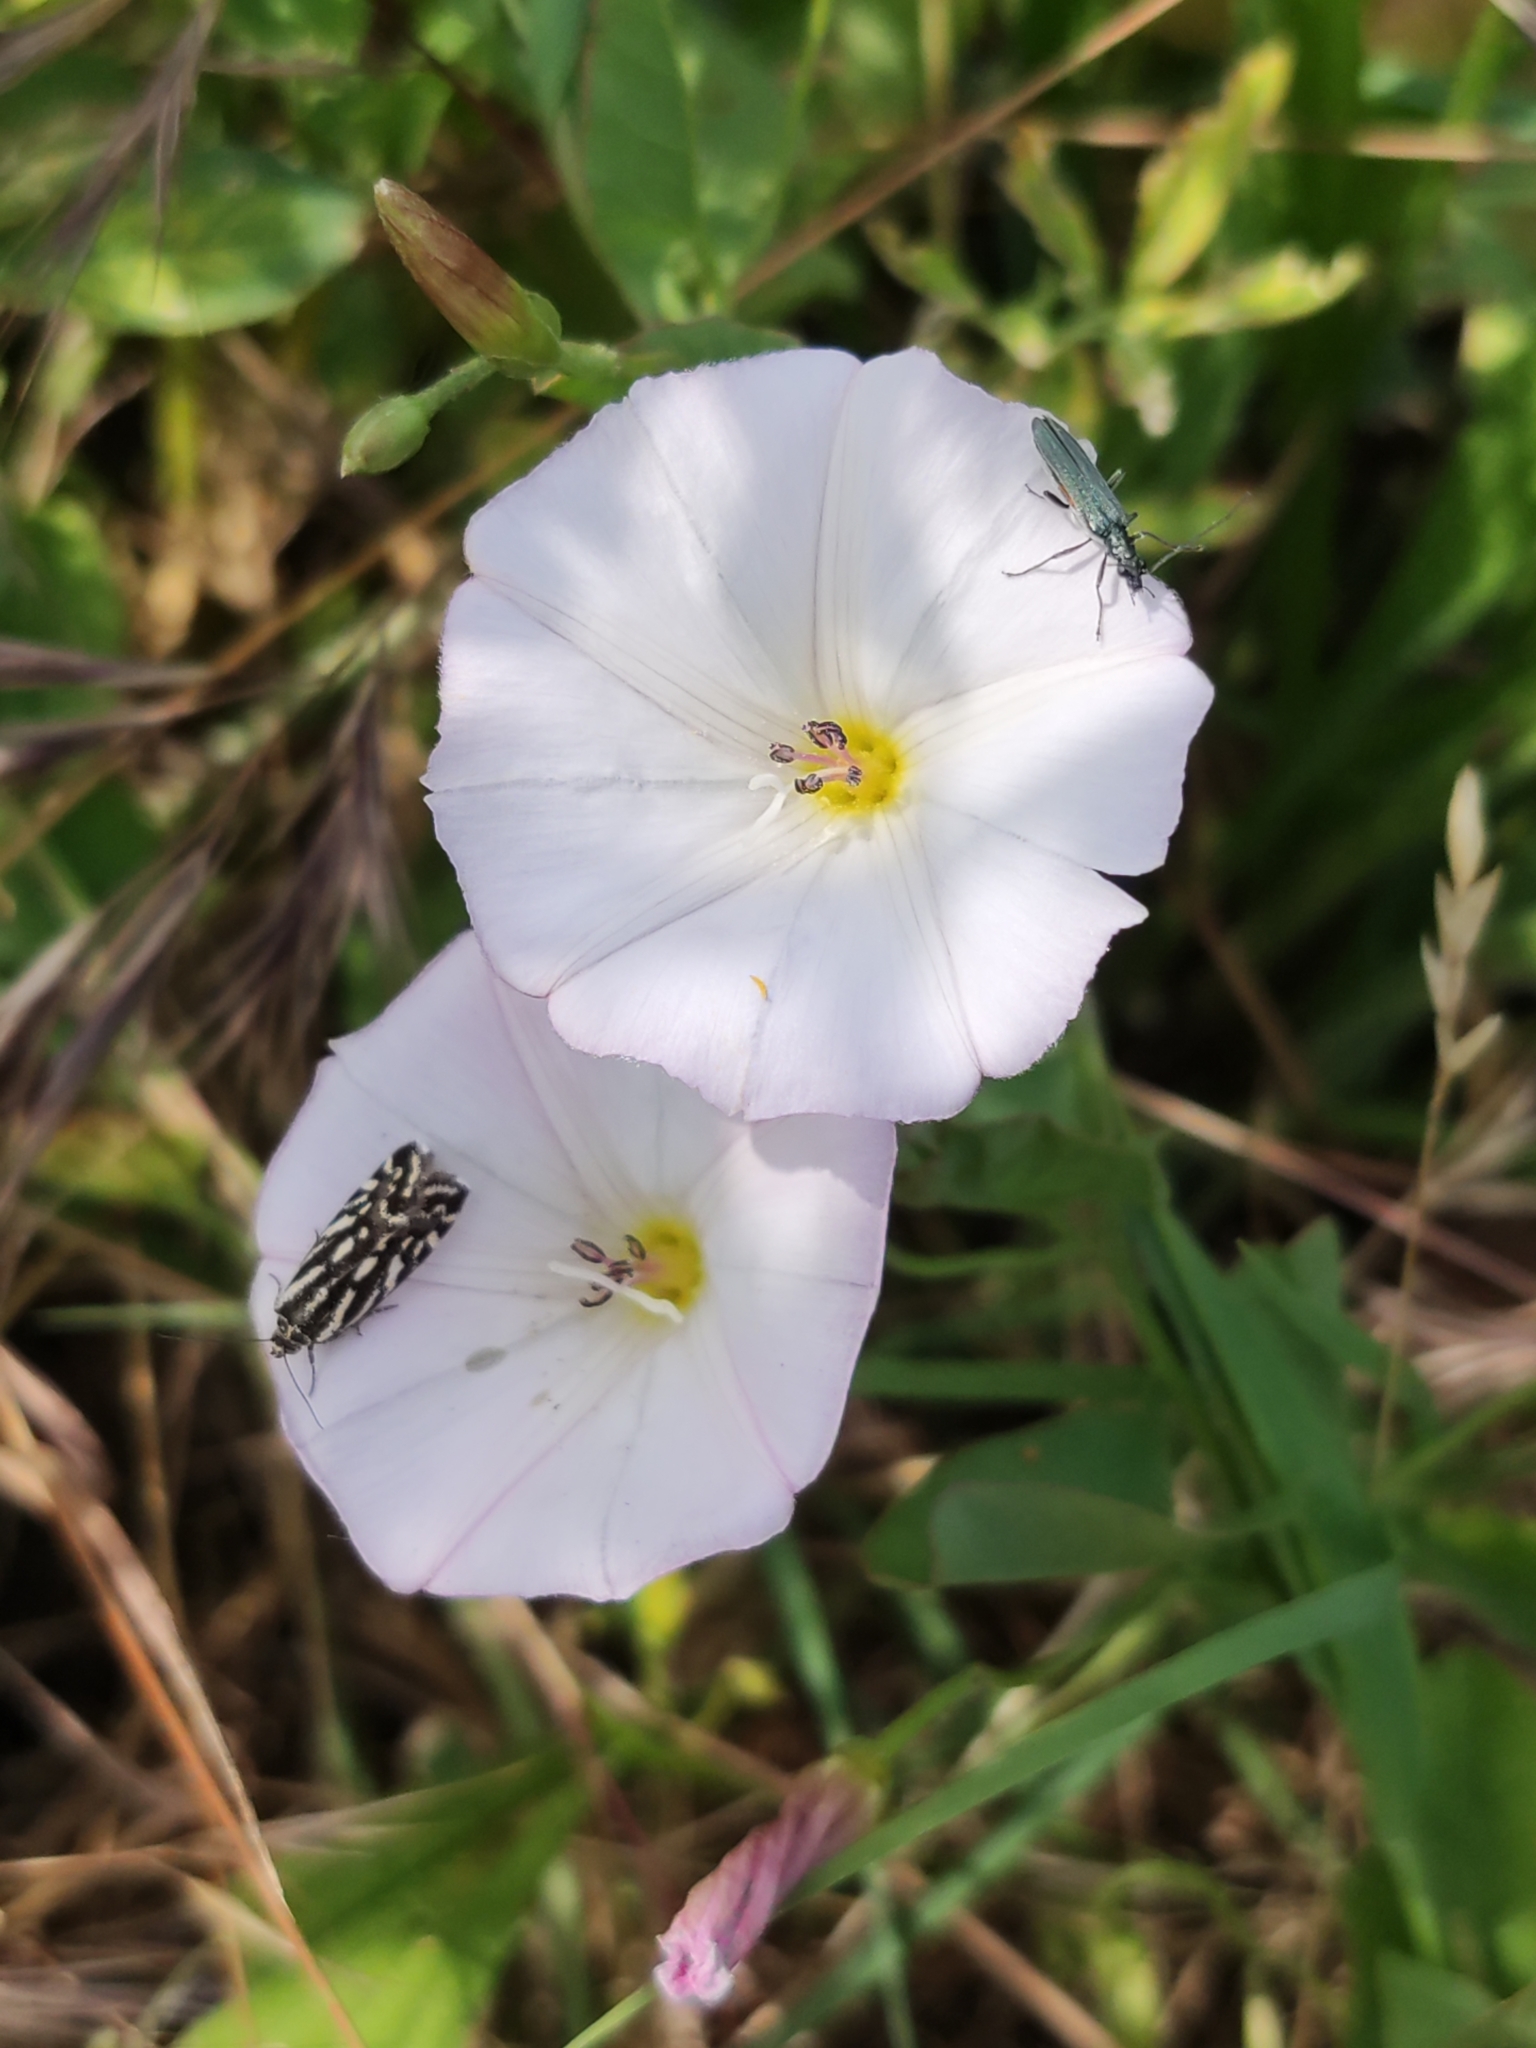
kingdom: Plantae
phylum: Tracheophyta
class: Magnoliopsida
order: Solanales
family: Convolvulaceae
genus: Convolvulus
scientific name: Convolvulus arvensis
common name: Field bindweed
